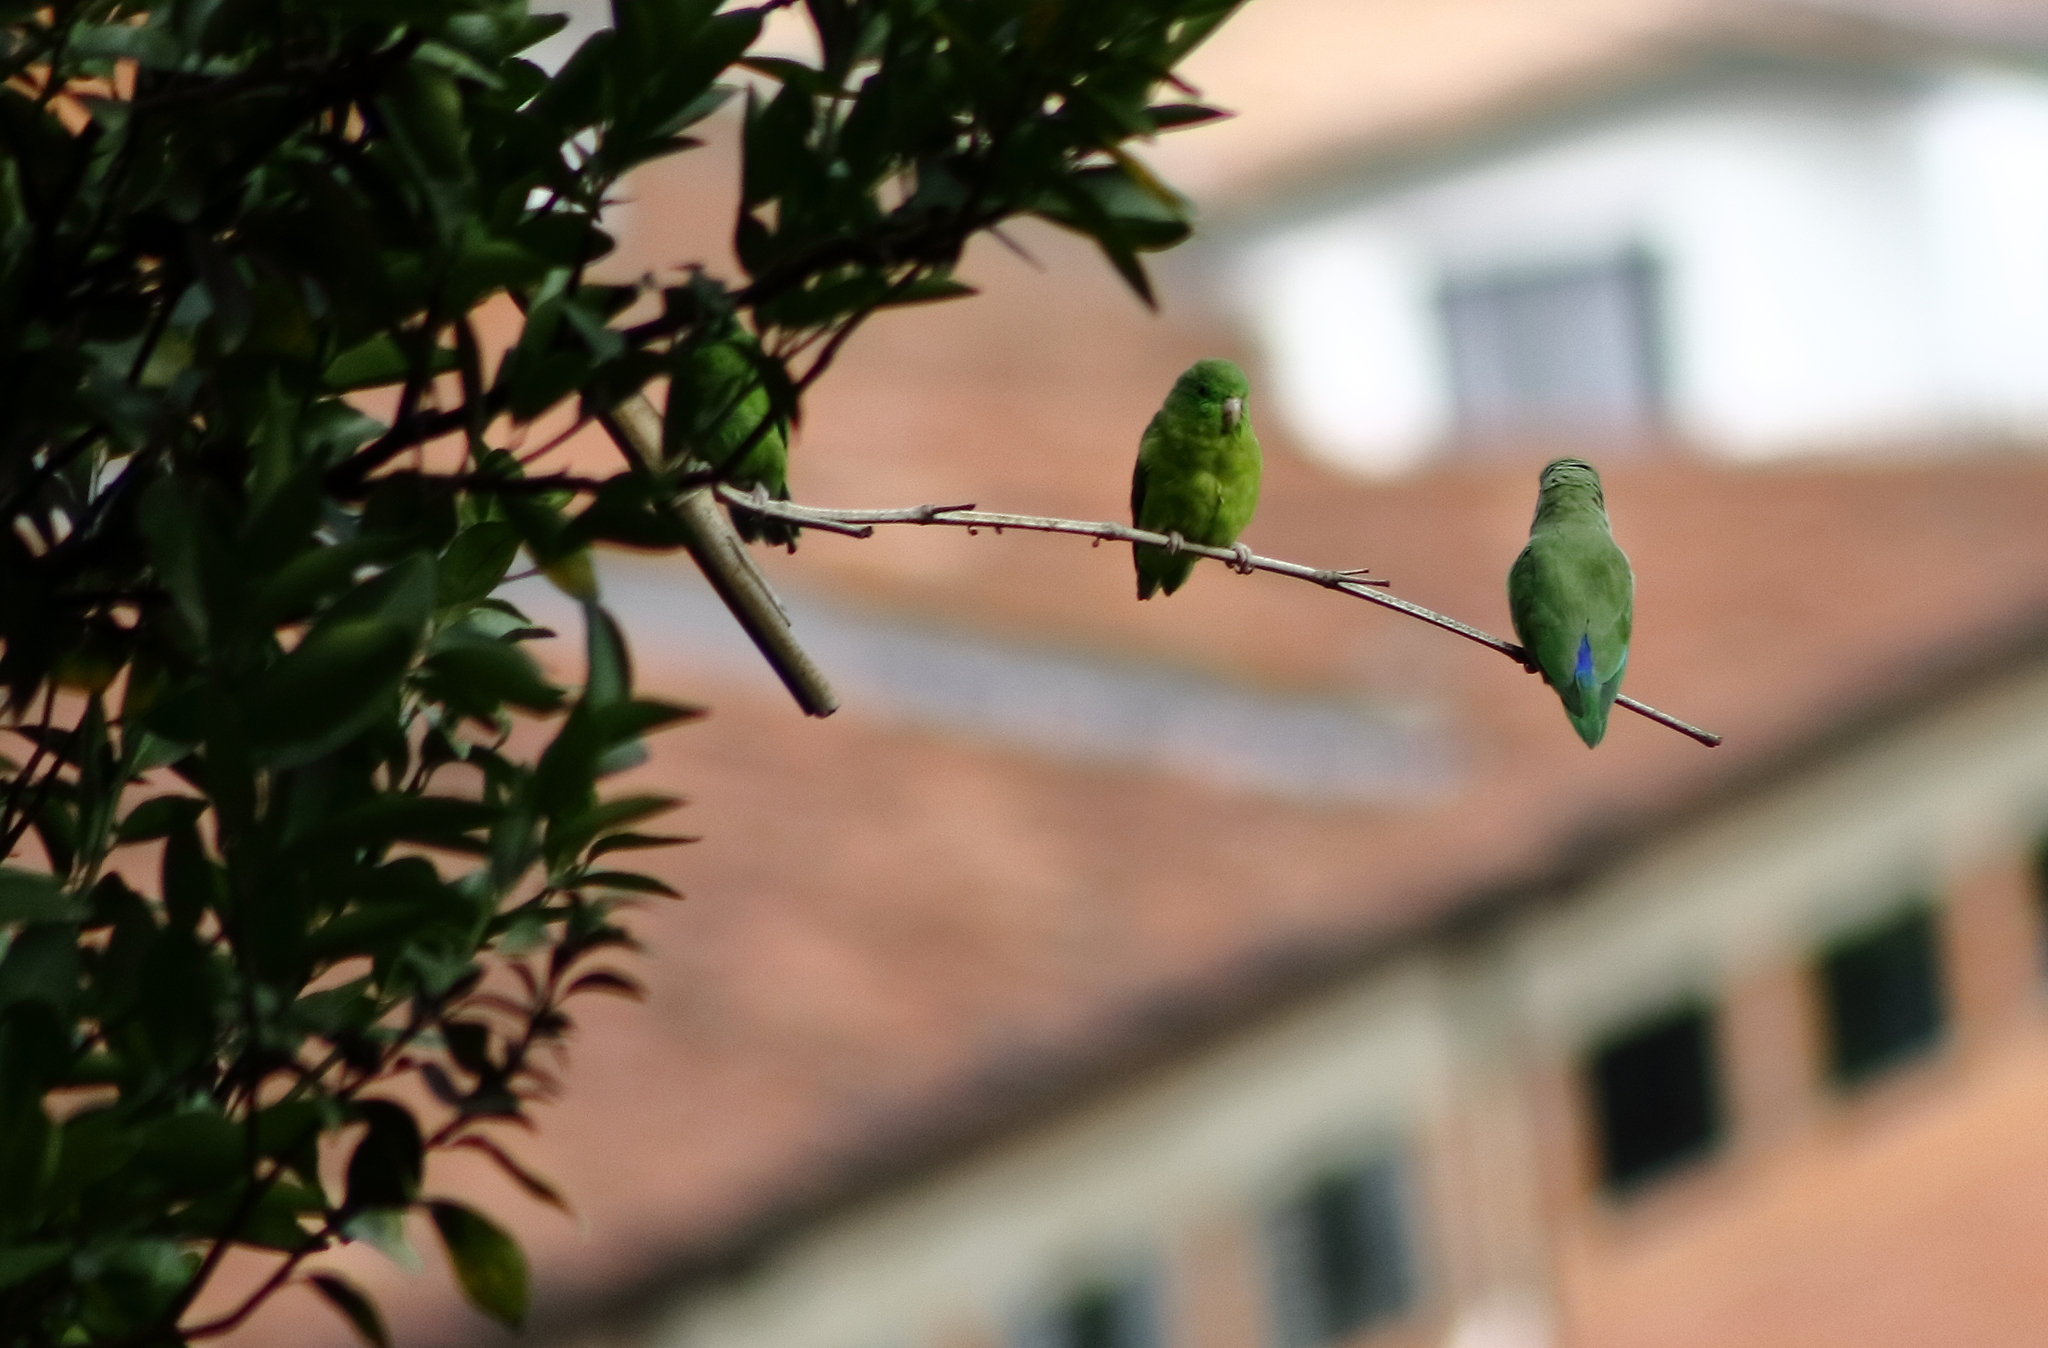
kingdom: Animalia
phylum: Chordata
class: Aves
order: Psittaciformes
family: Psittacidae
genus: Forpus
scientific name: Forpus conspicillatus
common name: Spectacled parrotlet
